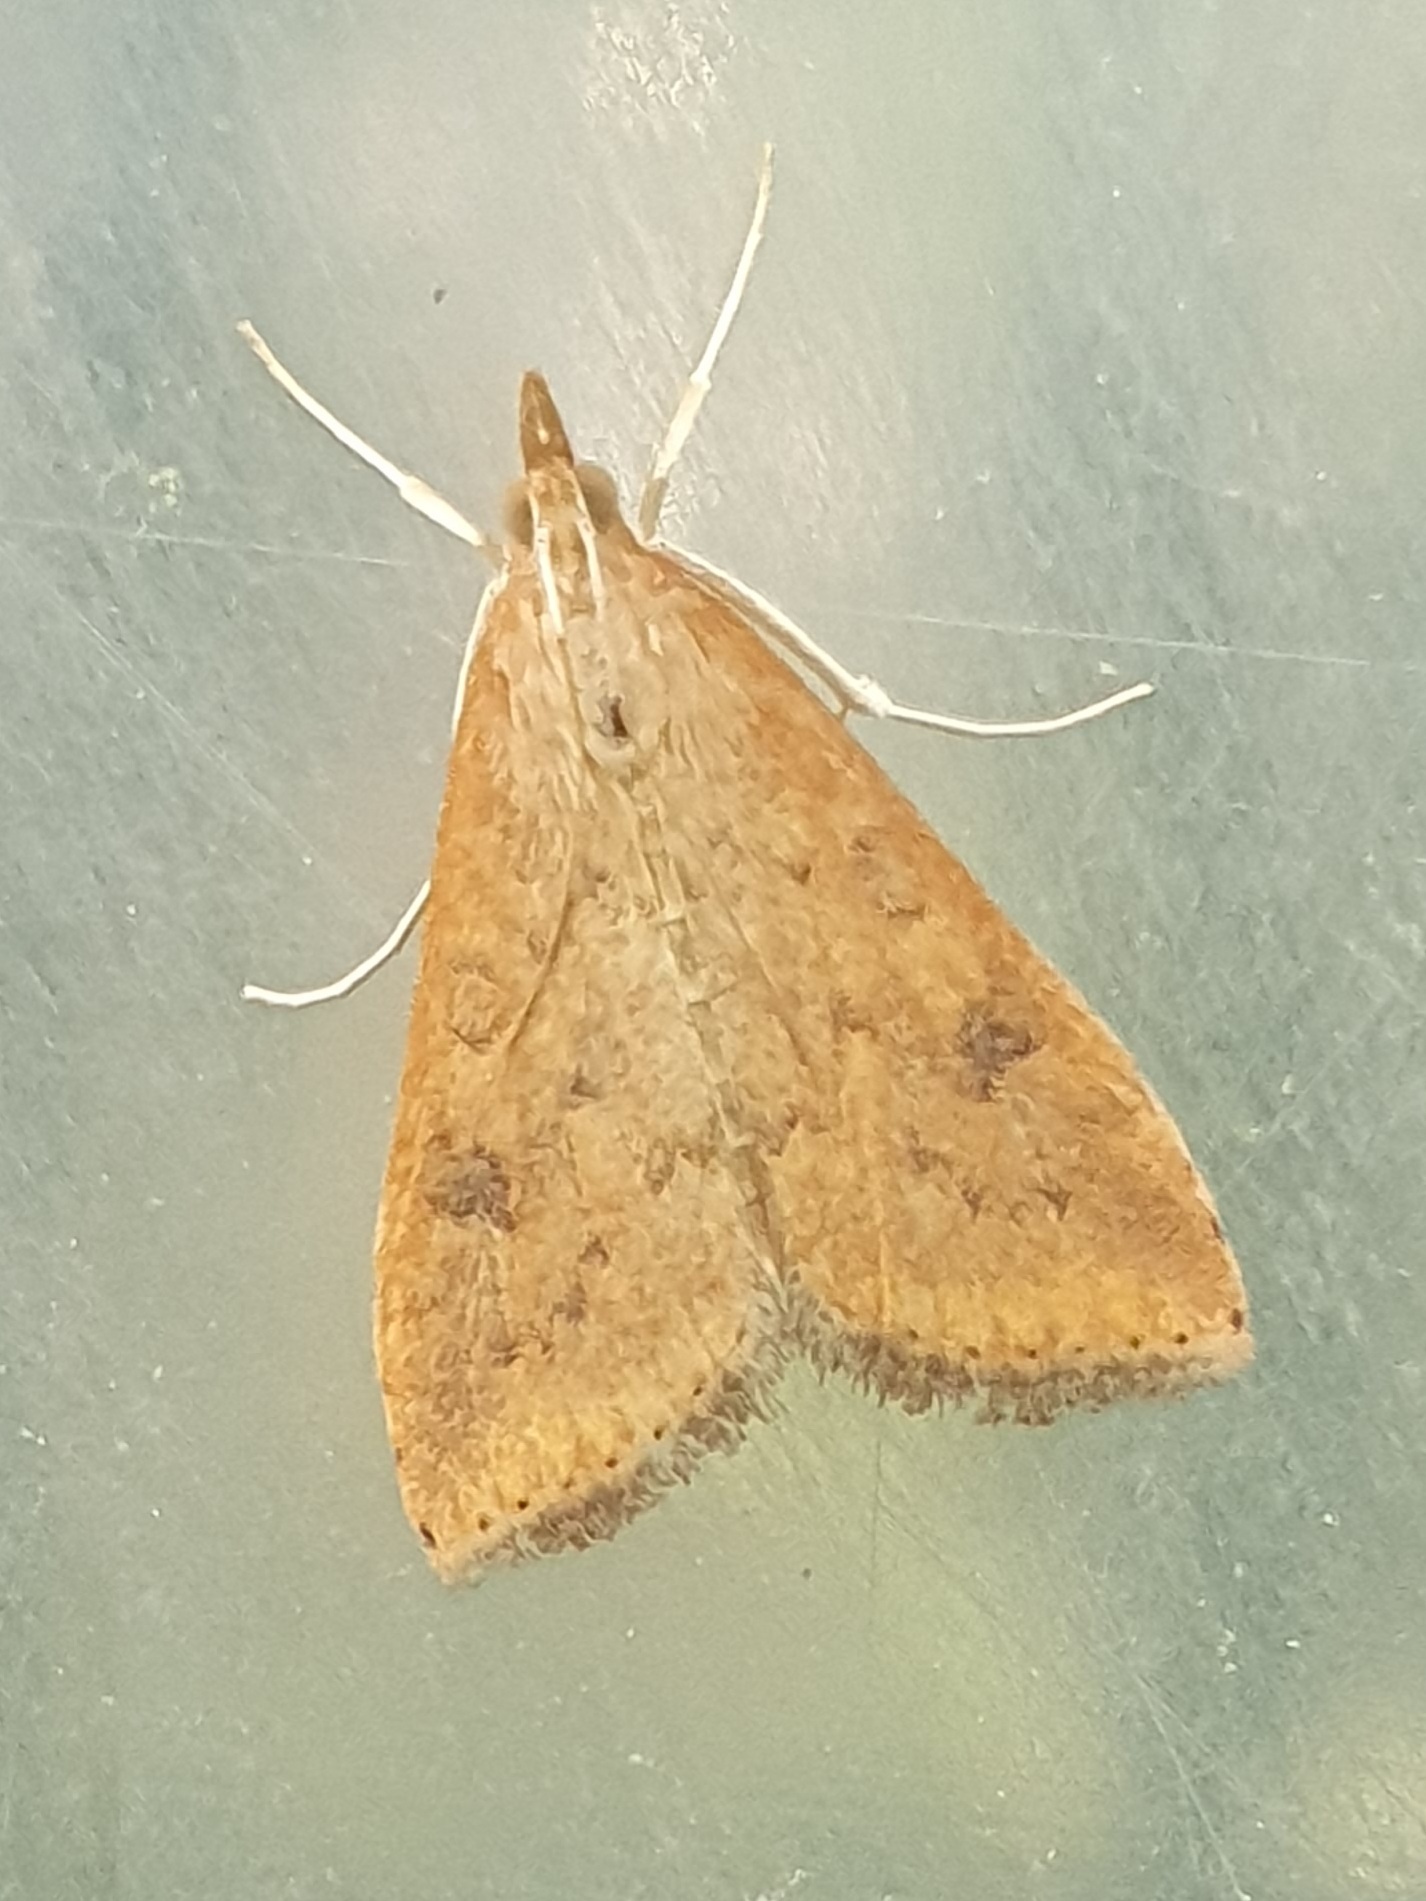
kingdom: Animalia
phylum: Arthropoda
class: Insecta
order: Lepidoptera
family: Crambidae
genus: Udea
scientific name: Udea ferrugalis
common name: Rusty dot
